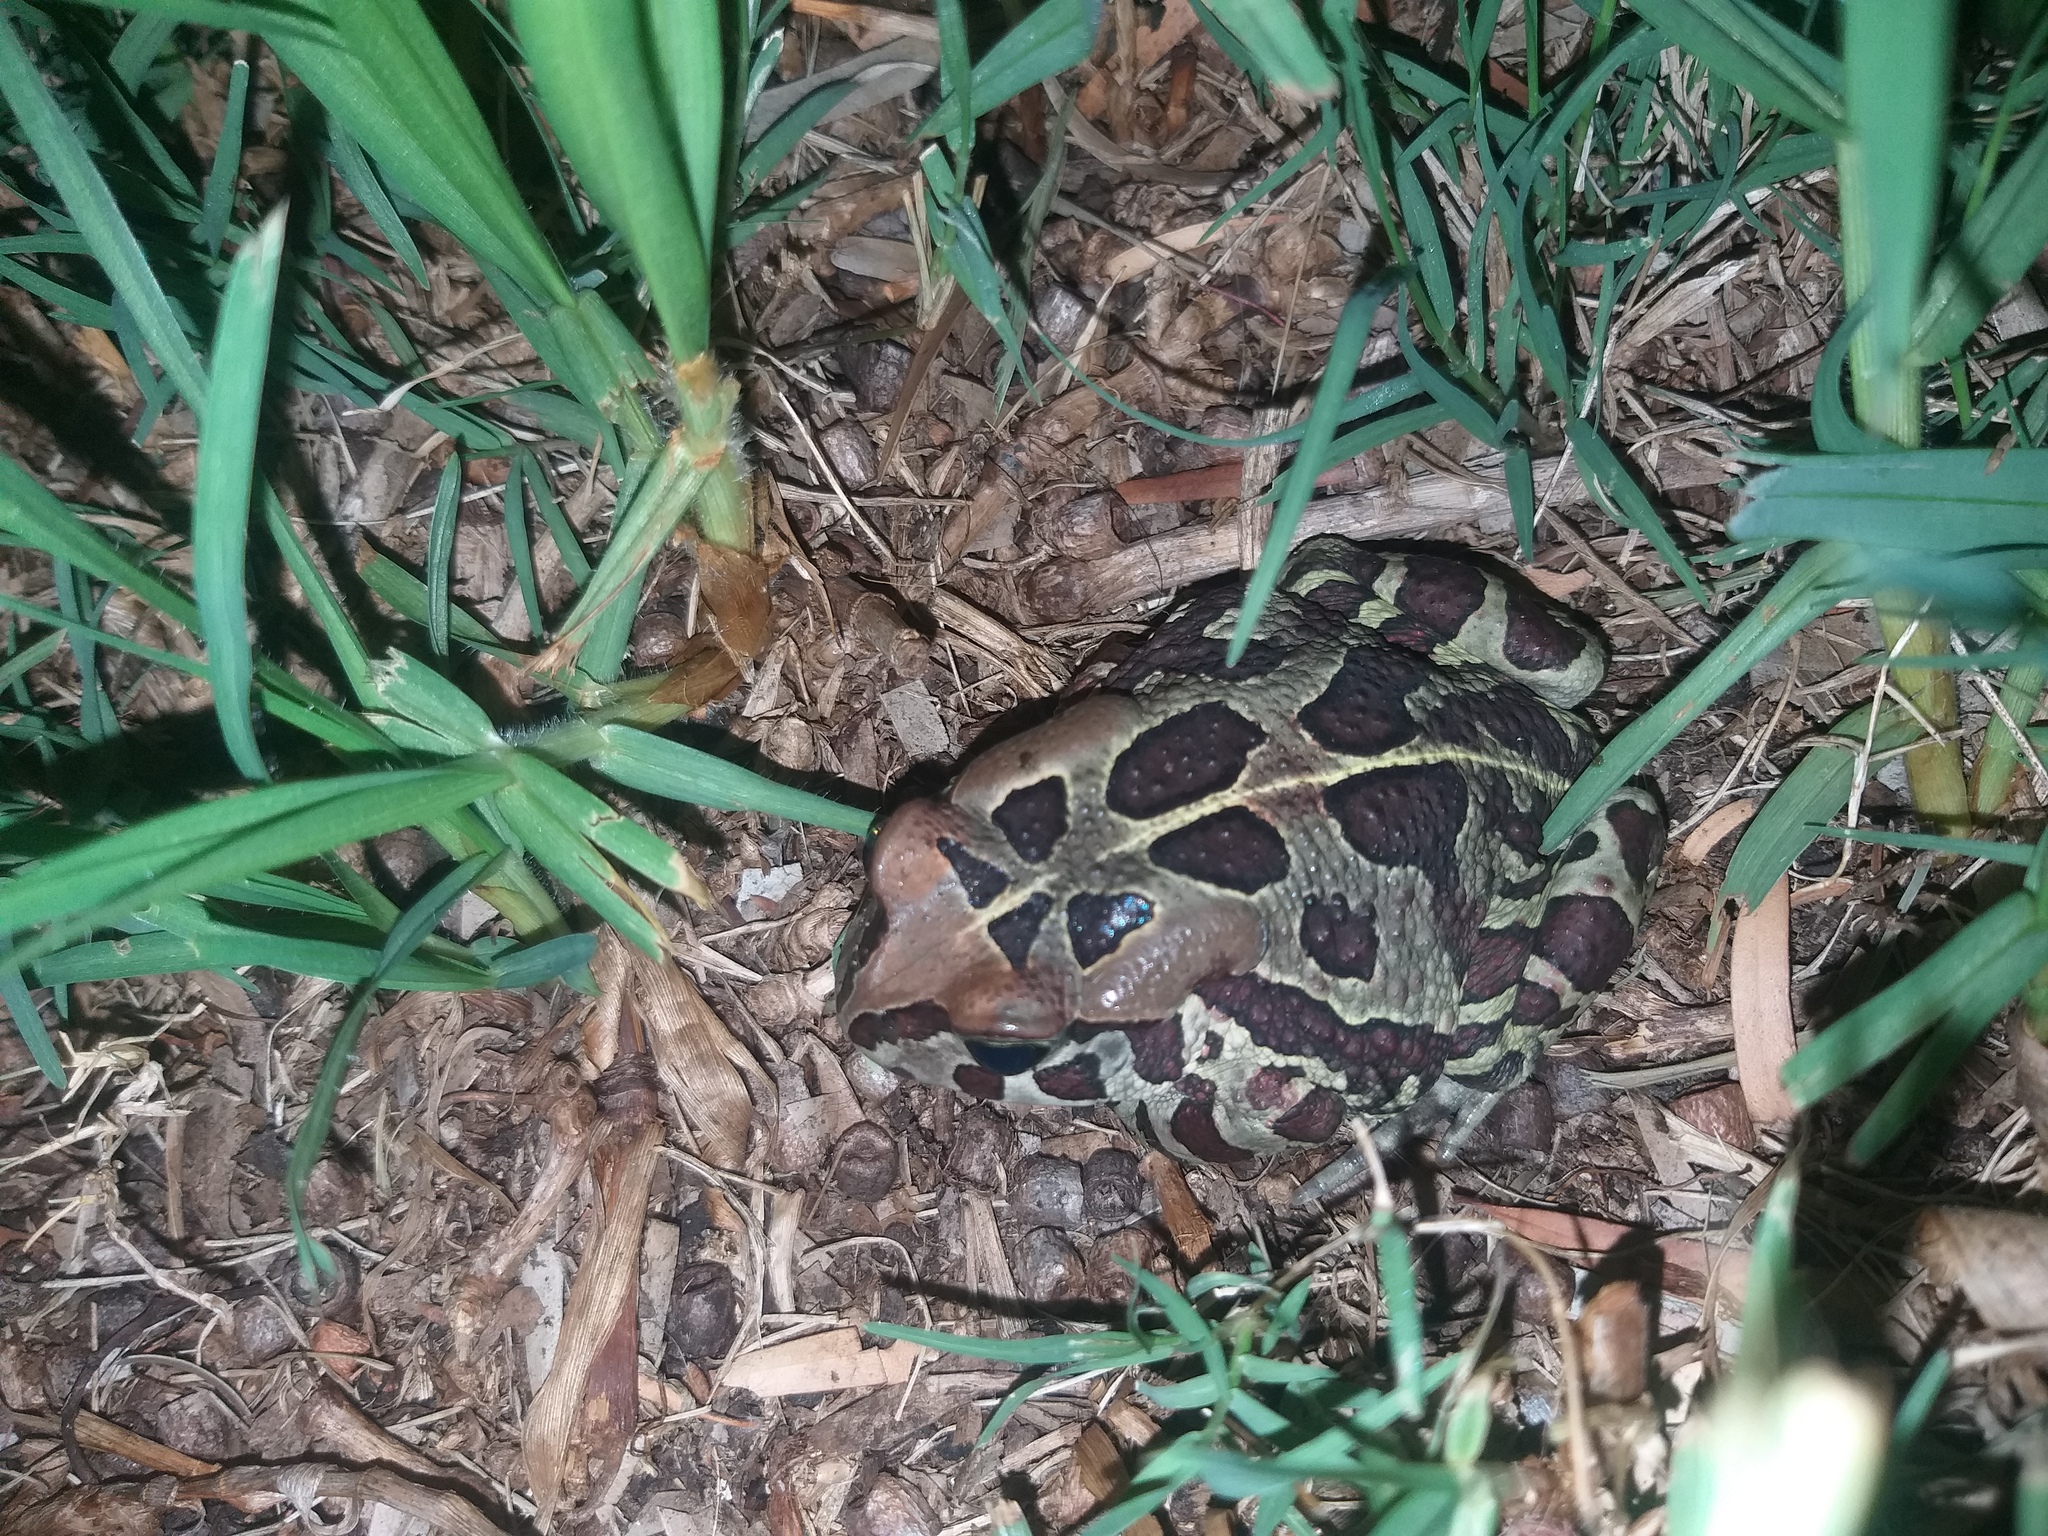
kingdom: Animalia
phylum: Chordata
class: Amphibia
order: Anura
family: Bufonidae
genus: Sclerophrys
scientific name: Sclerophrys pantherina
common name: Panther toad
